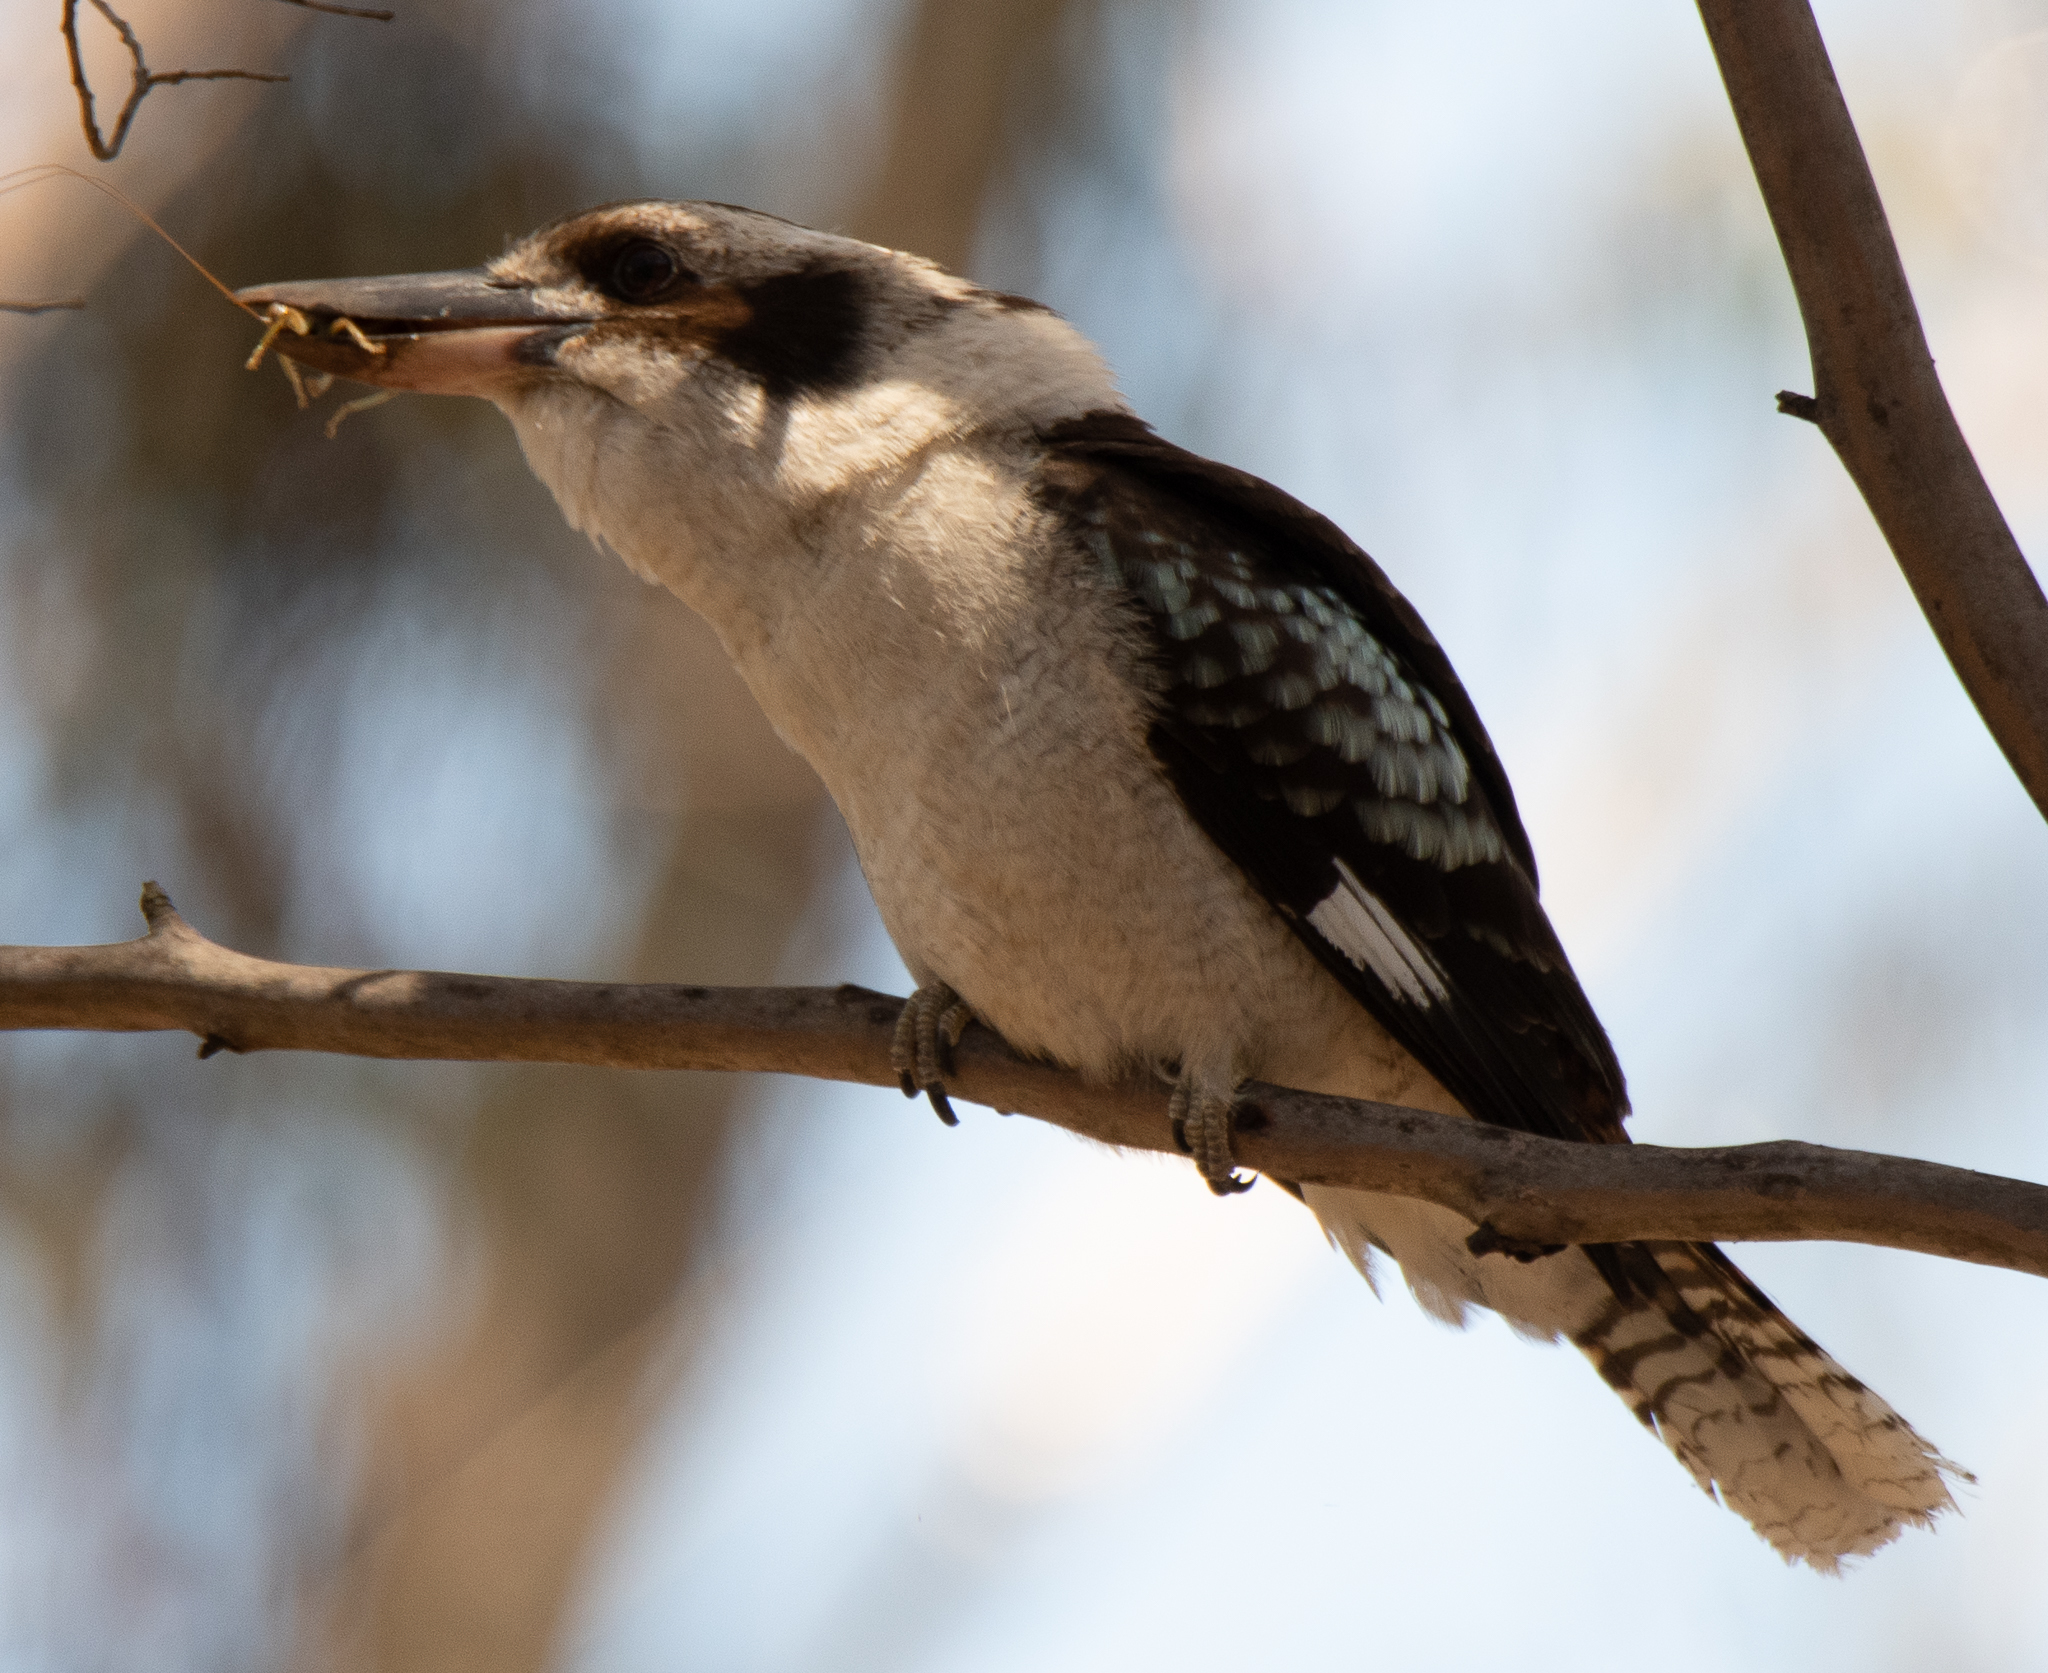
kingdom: Animalia
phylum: Chordata
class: Aves
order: Coraciiformes
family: Alcedinidae
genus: Dacelo
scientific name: Dacelo novaeguineae
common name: Laughing kookaburra
